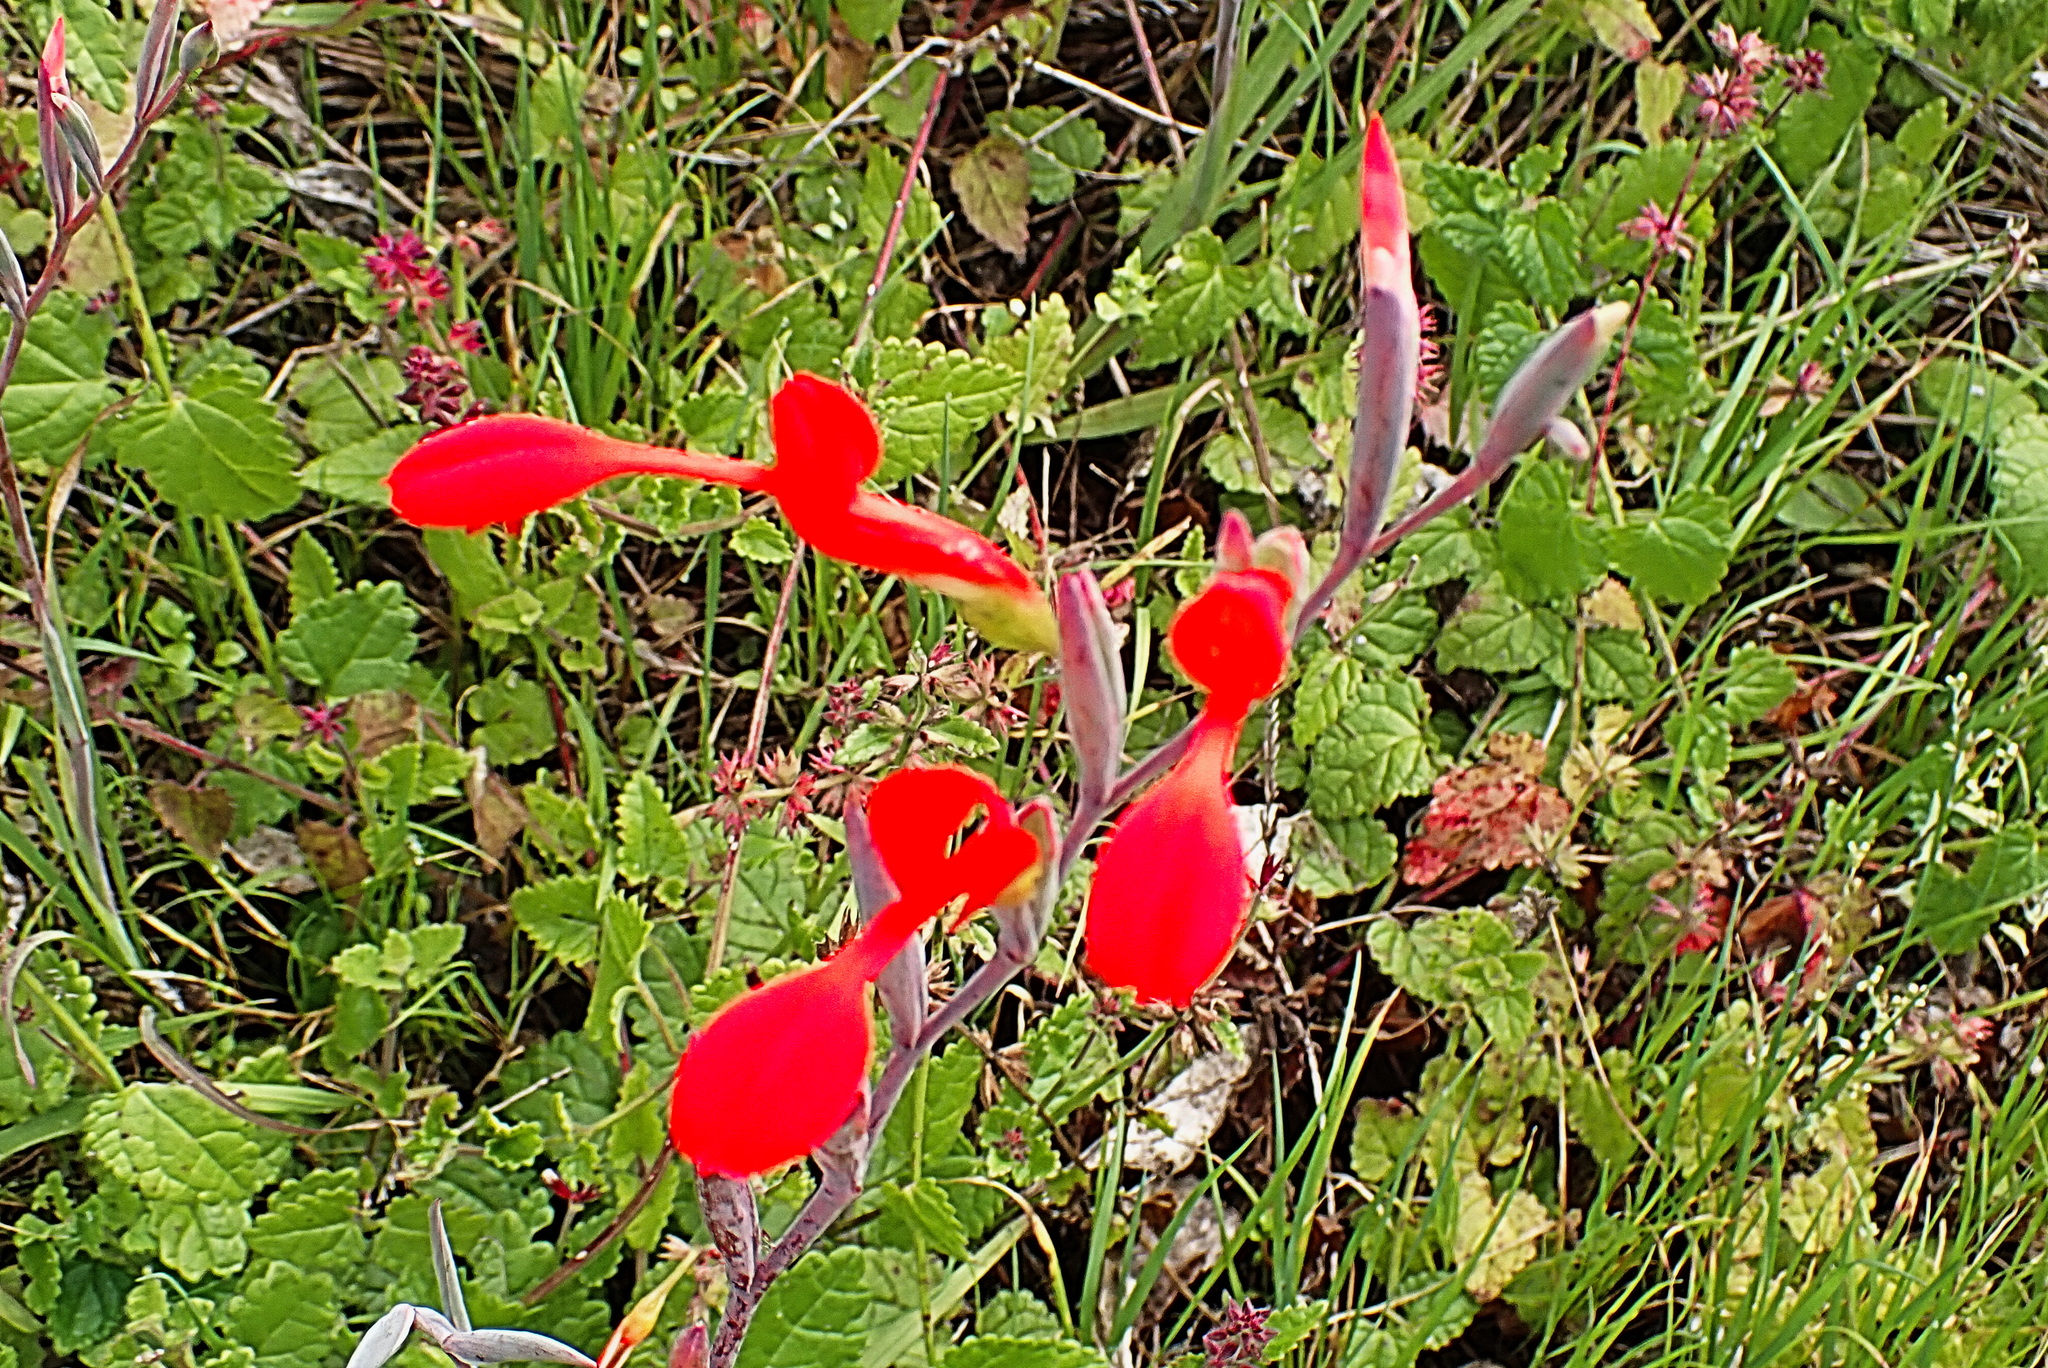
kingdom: Plantae
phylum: Tracheophyta
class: Liliopsida
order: Asparagales
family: Iridaceae
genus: Gladiolus
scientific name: Gladiolus cunonius
